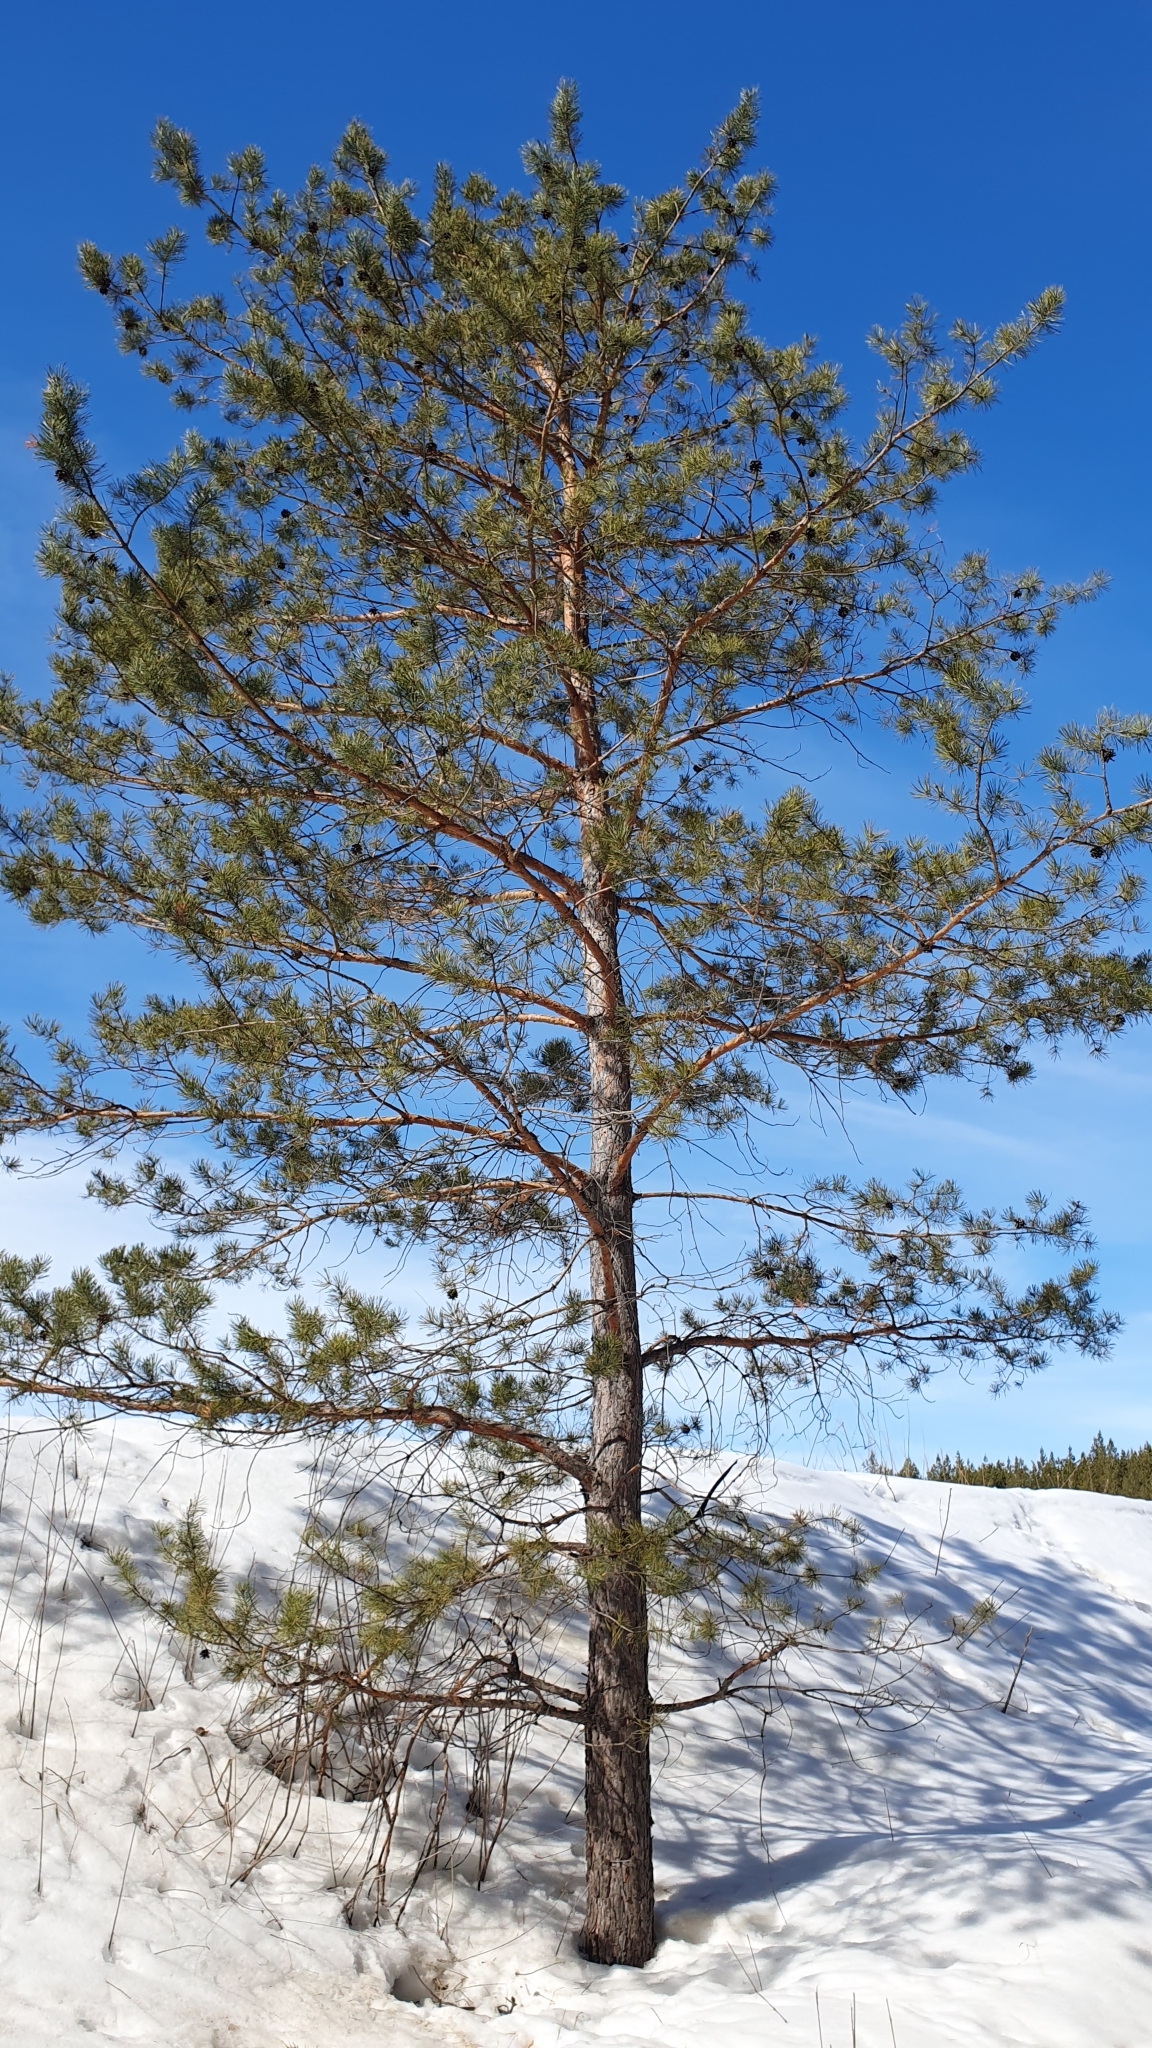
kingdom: Plantae
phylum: Tracheophyta
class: Pinopsida
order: Pinales
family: Pinaceae
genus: Pinus
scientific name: Pinus sylvestris
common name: Scots pine
